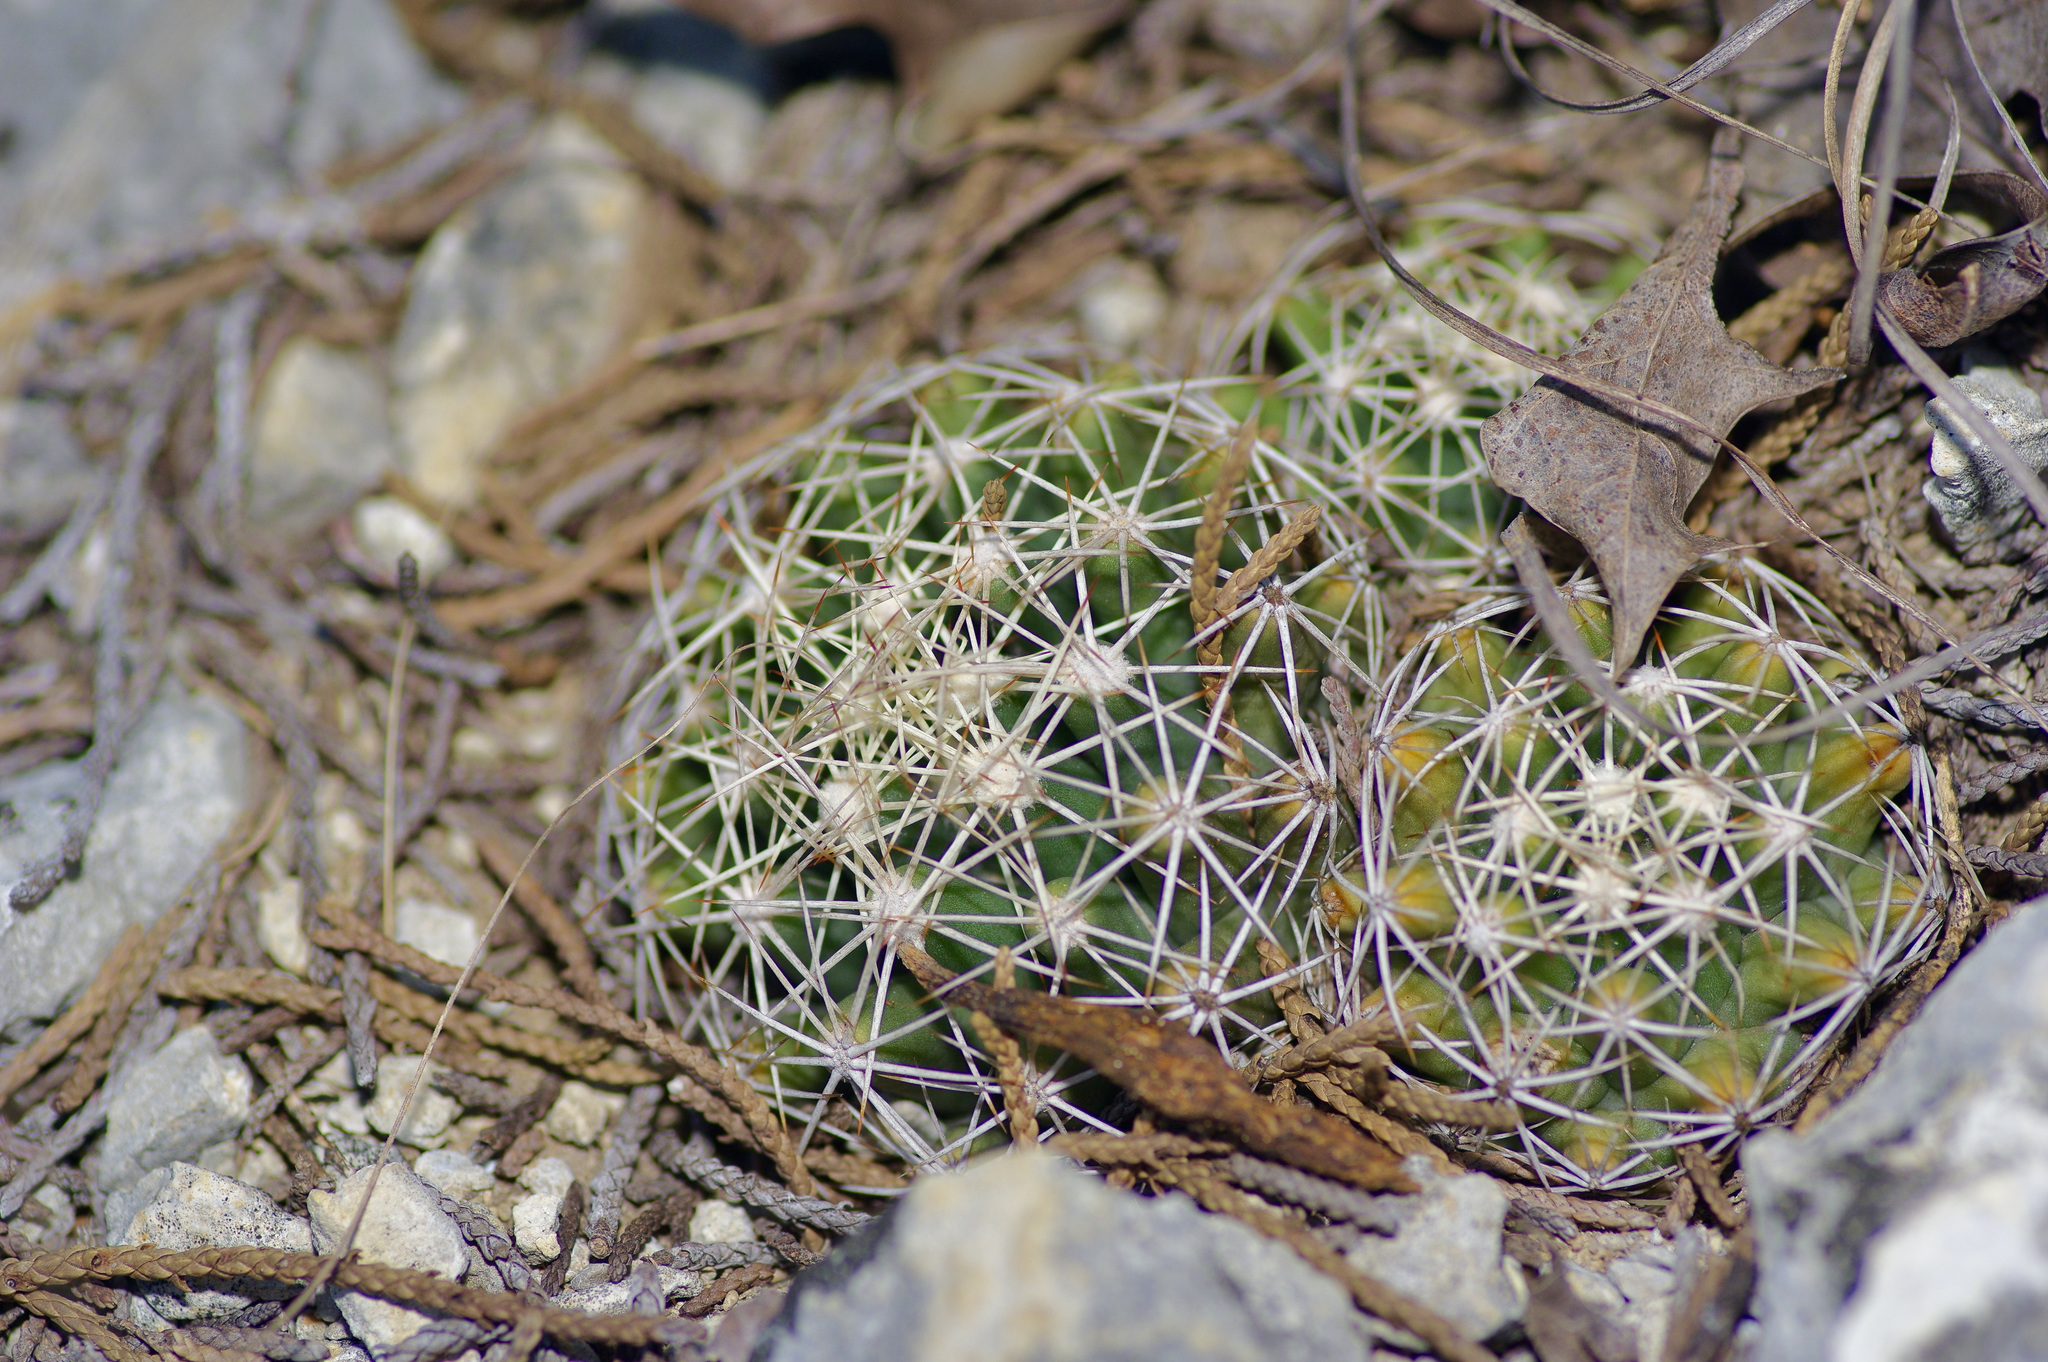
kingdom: Plantae
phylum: Tracheophyta
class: Magnoliopsida
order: Caryophyllales
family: Cactaceae
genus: Coryphantha
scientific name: Coryphantha sulcata
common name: Finger cactus
